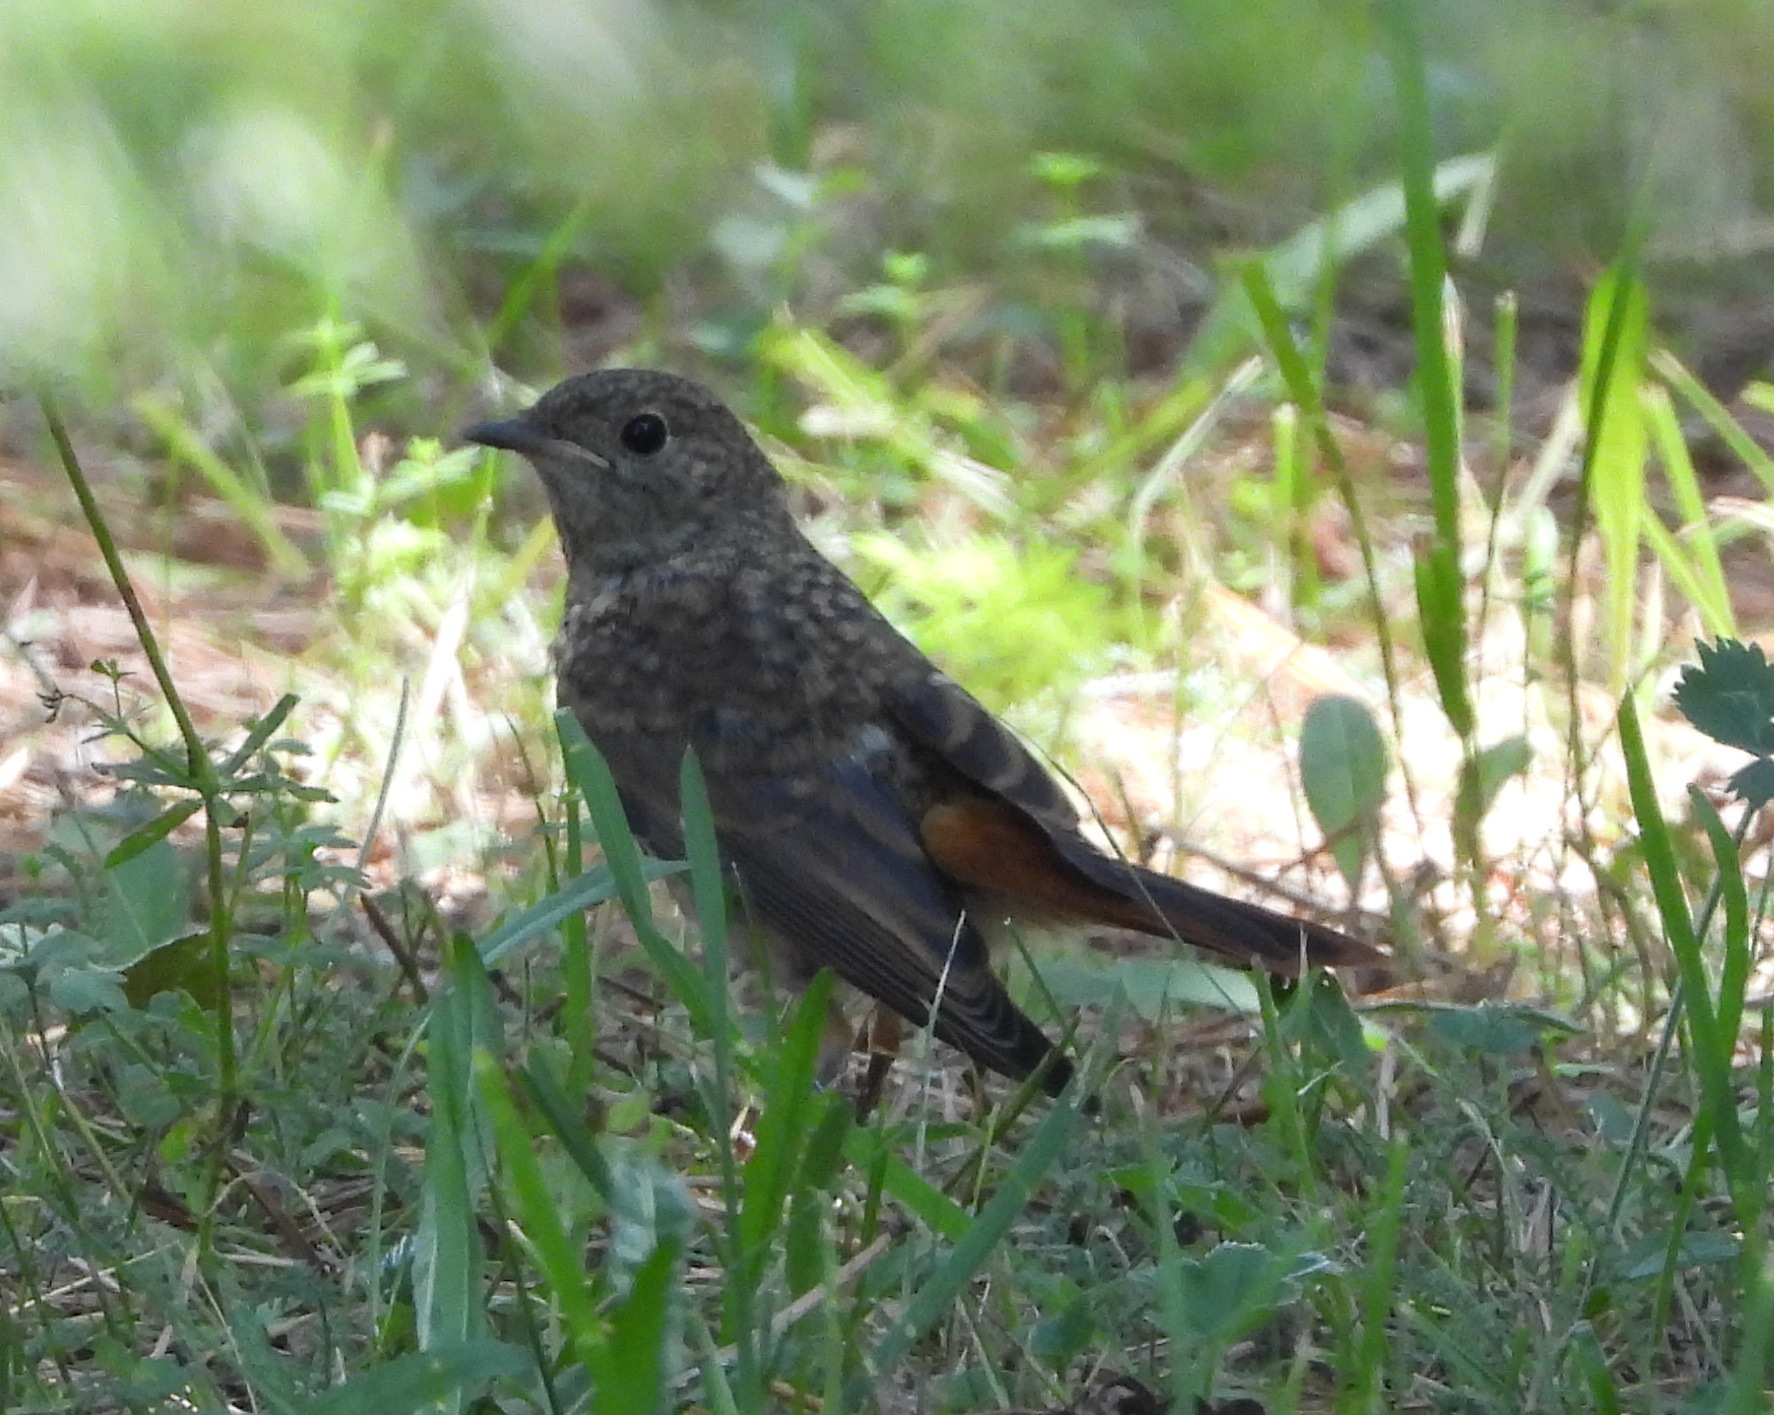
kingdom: Animalia
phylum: Chordata
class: Aves
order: Passeriformes
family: Muscicapidae
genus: Phoenicurus
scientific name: Phoenicurus phoenicurus
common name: Common redstart
